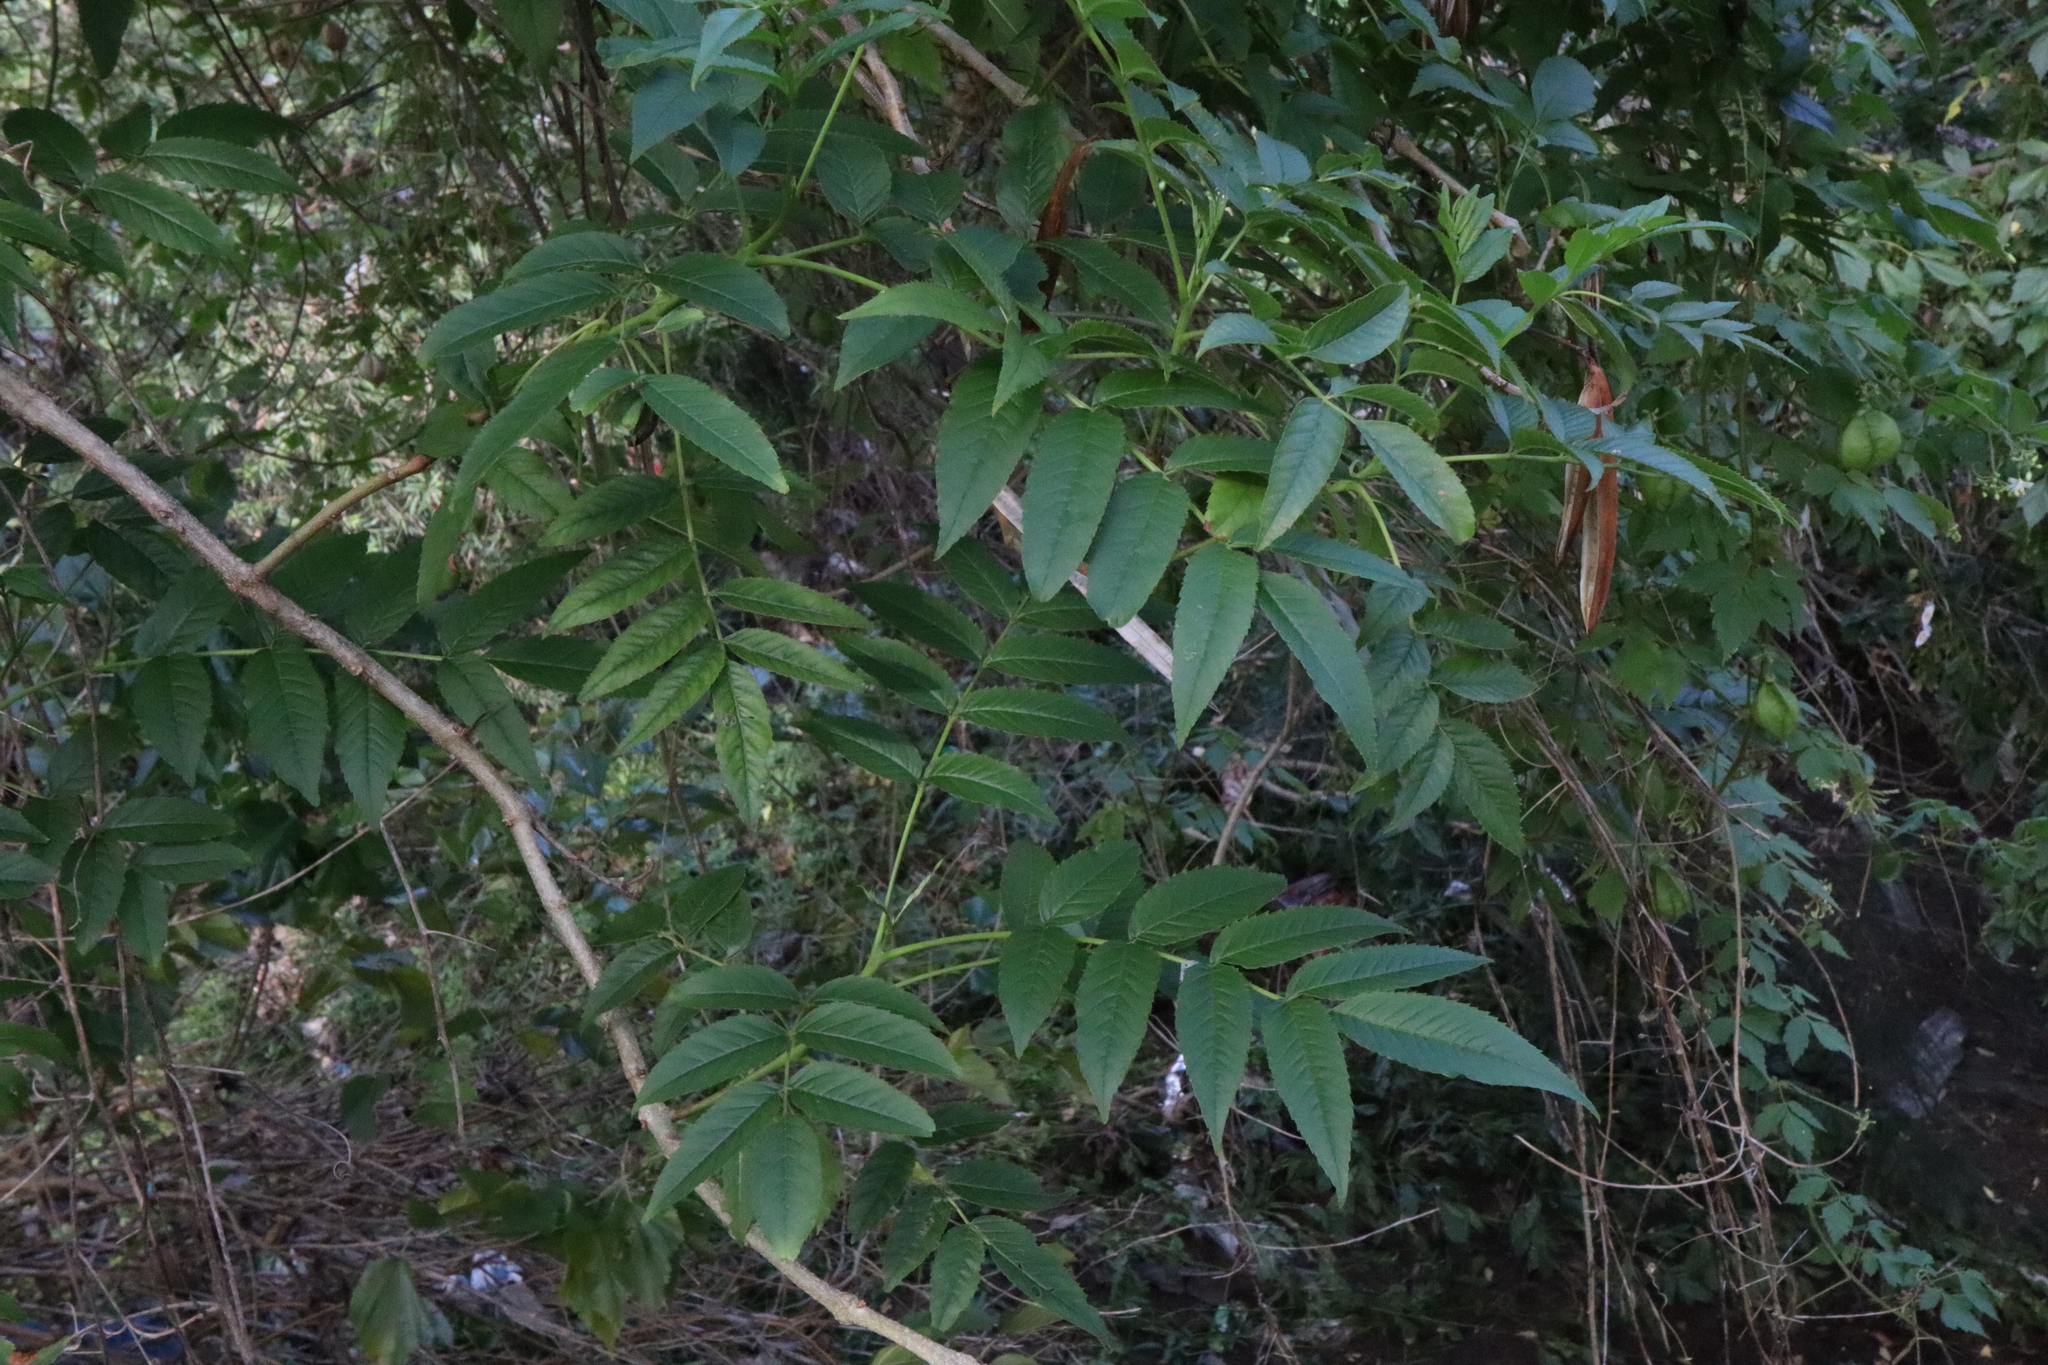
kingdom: Plantae
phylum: Tracheophyta
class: Magnoliopsida
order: Lamiales
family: Bignoniaceae
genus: Tecoma
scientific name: Tecoma stans
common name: Yellow trumpetbush
